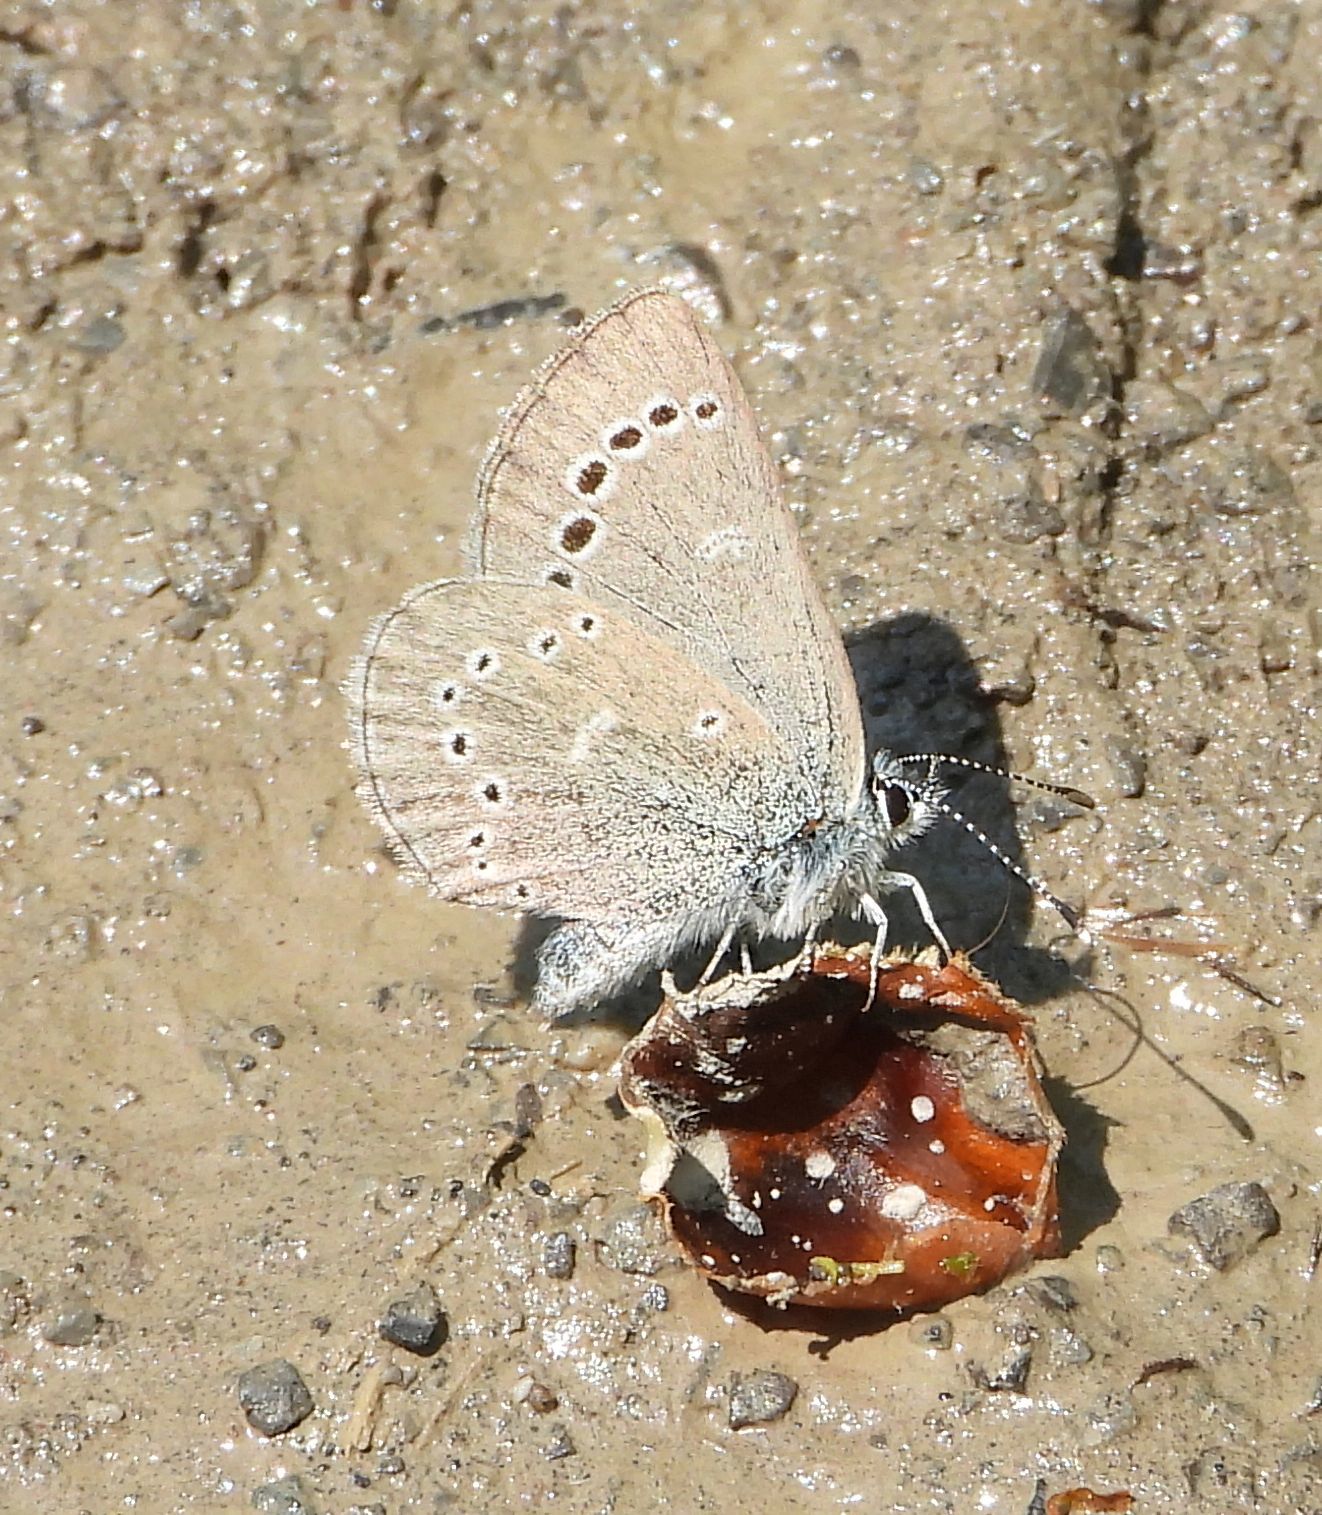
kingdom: Animalia
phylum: Arthropoda
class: Insecta
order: Lepidoptera
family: Lycaenidae
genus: Glaucopsyche
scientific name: Glaucopsyche lygdamus
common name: Silvery blue
